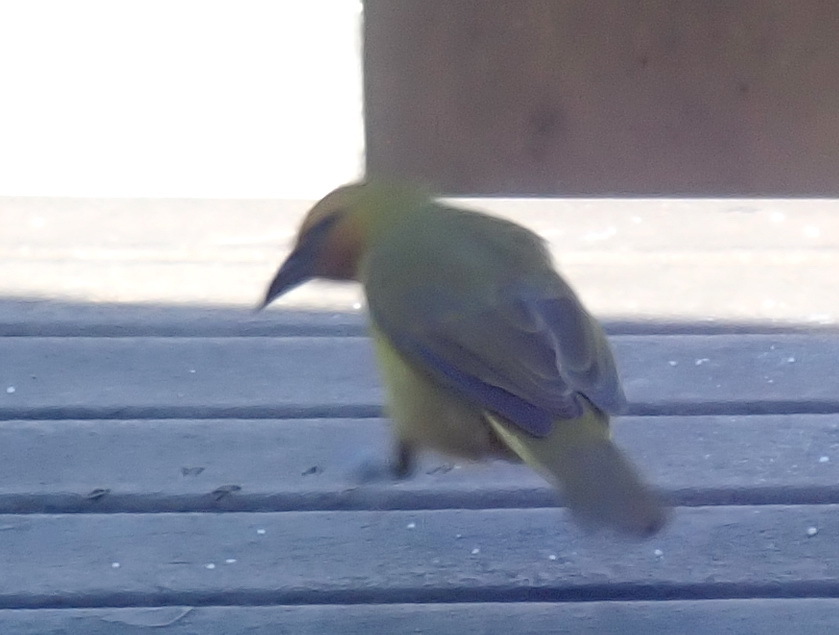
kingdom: Animalia
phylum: Chordata
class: Aves
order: Passeriformes
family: Ploceidae
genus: Ploceus
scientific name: Ploceus ocularis
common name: Spectacled weaver
